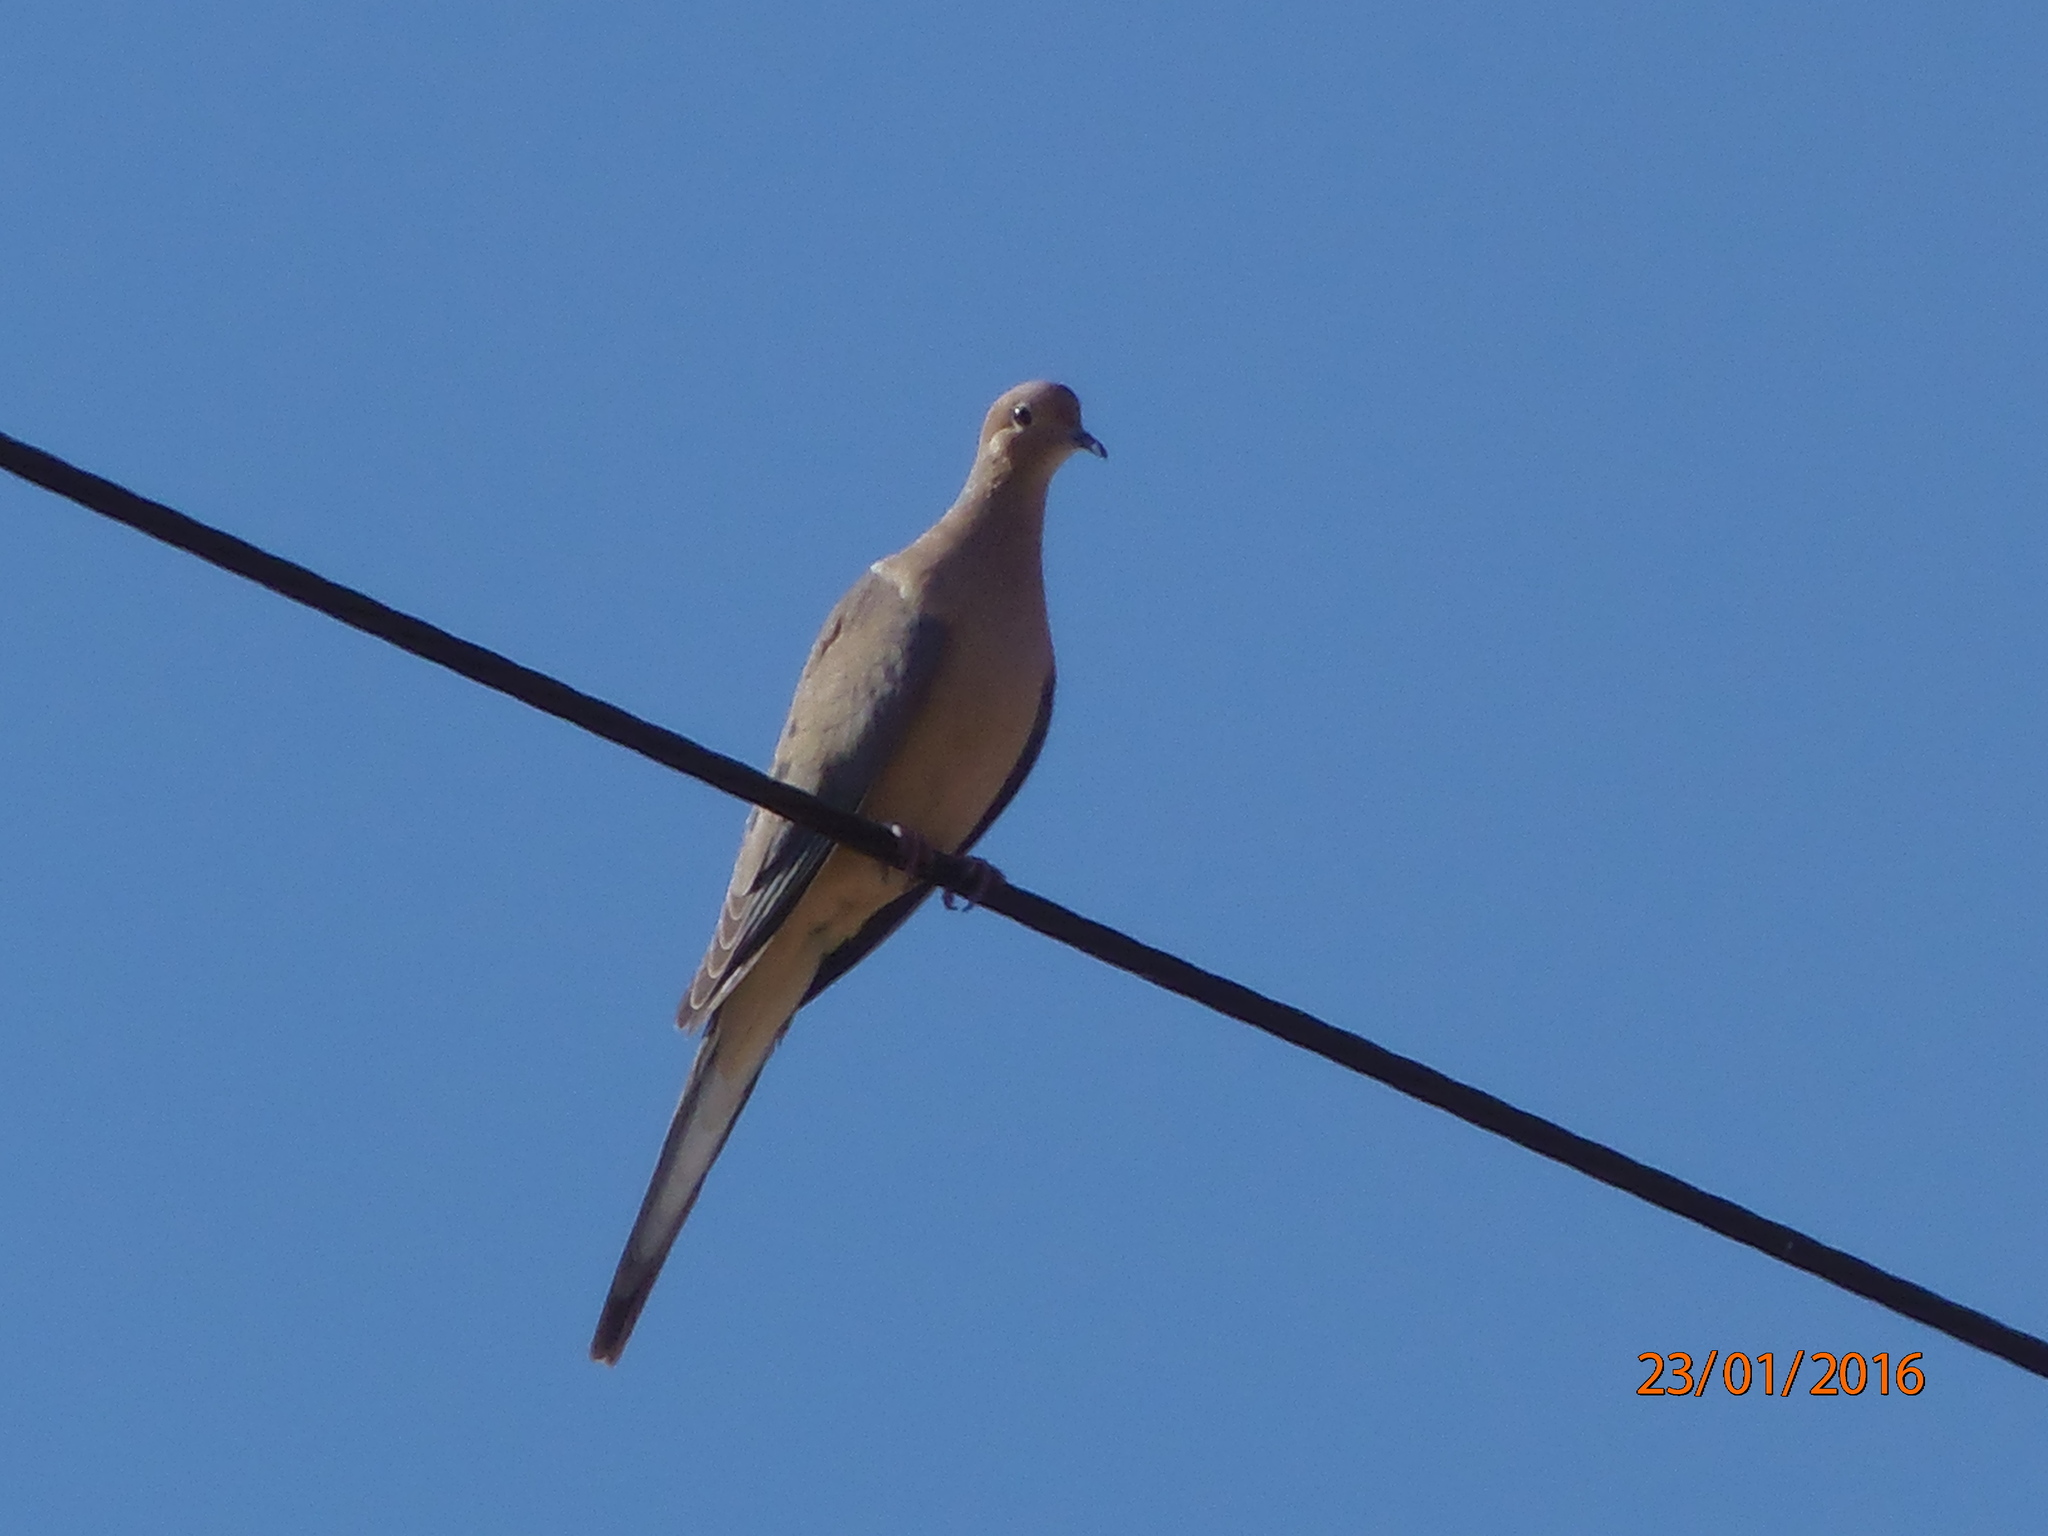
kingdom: Animalia
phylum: Chordata
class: Aves
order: Columbiformes
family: Columbidae
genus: Zenaida
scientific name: Zenaida macroura
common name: Mourning dove
